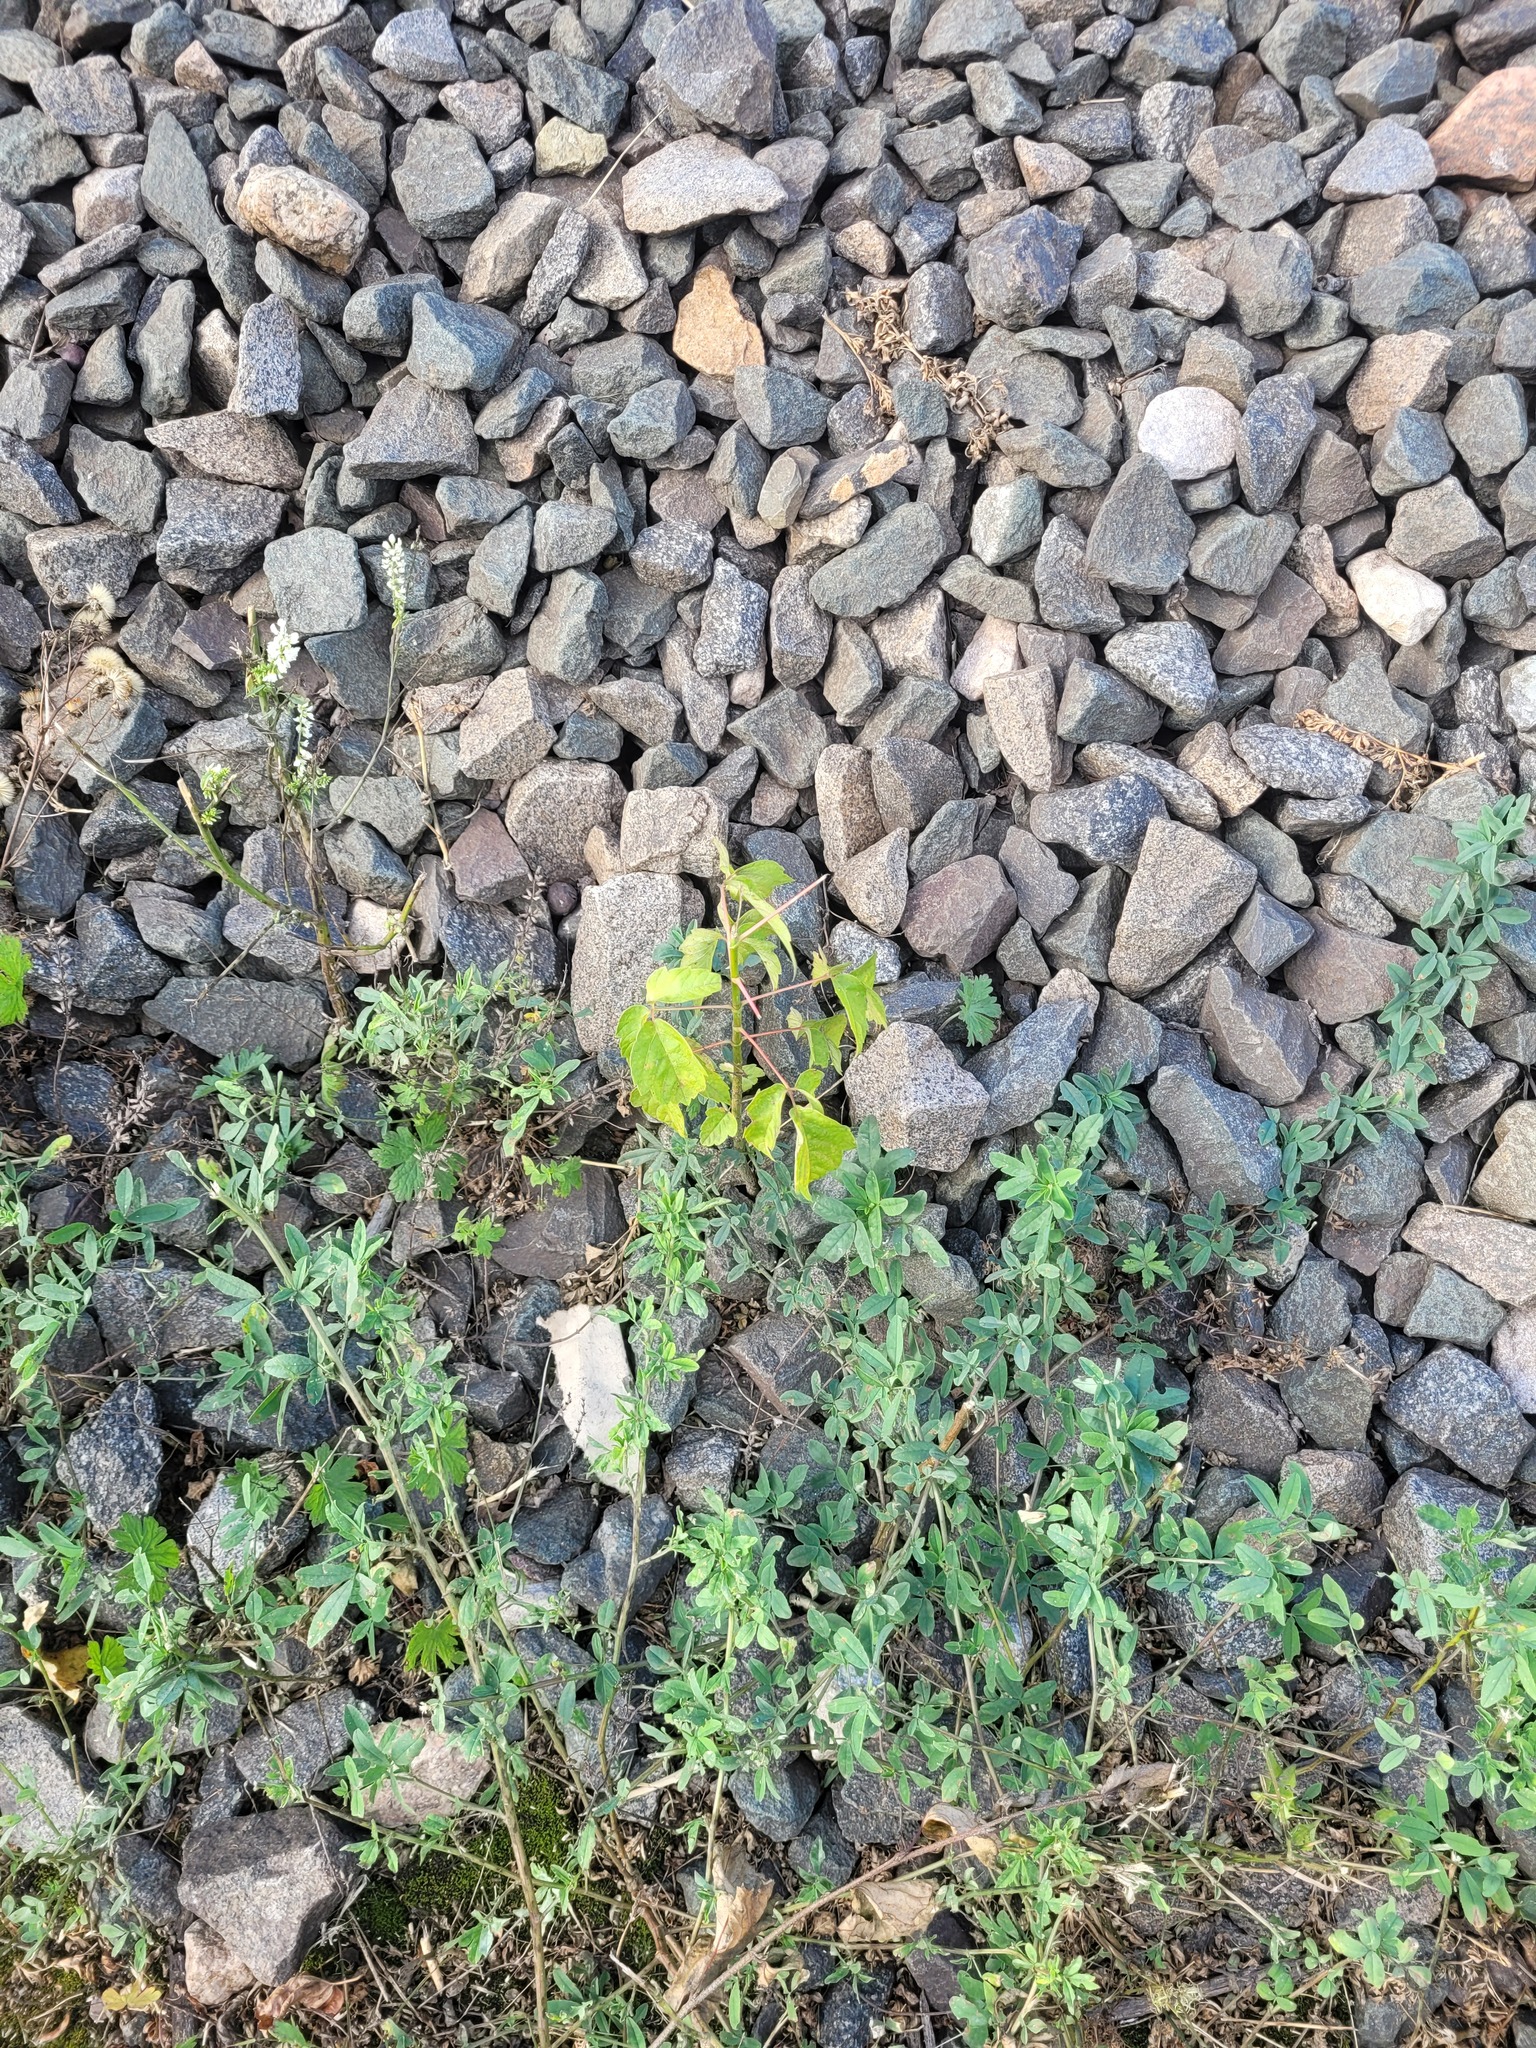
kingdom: Plantae
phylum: Tracheophyta
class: Magnoliopsida
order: Sapindales
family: Sapindaceae
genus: Acer
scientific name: Acer negundo
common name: Ashleaf maple
